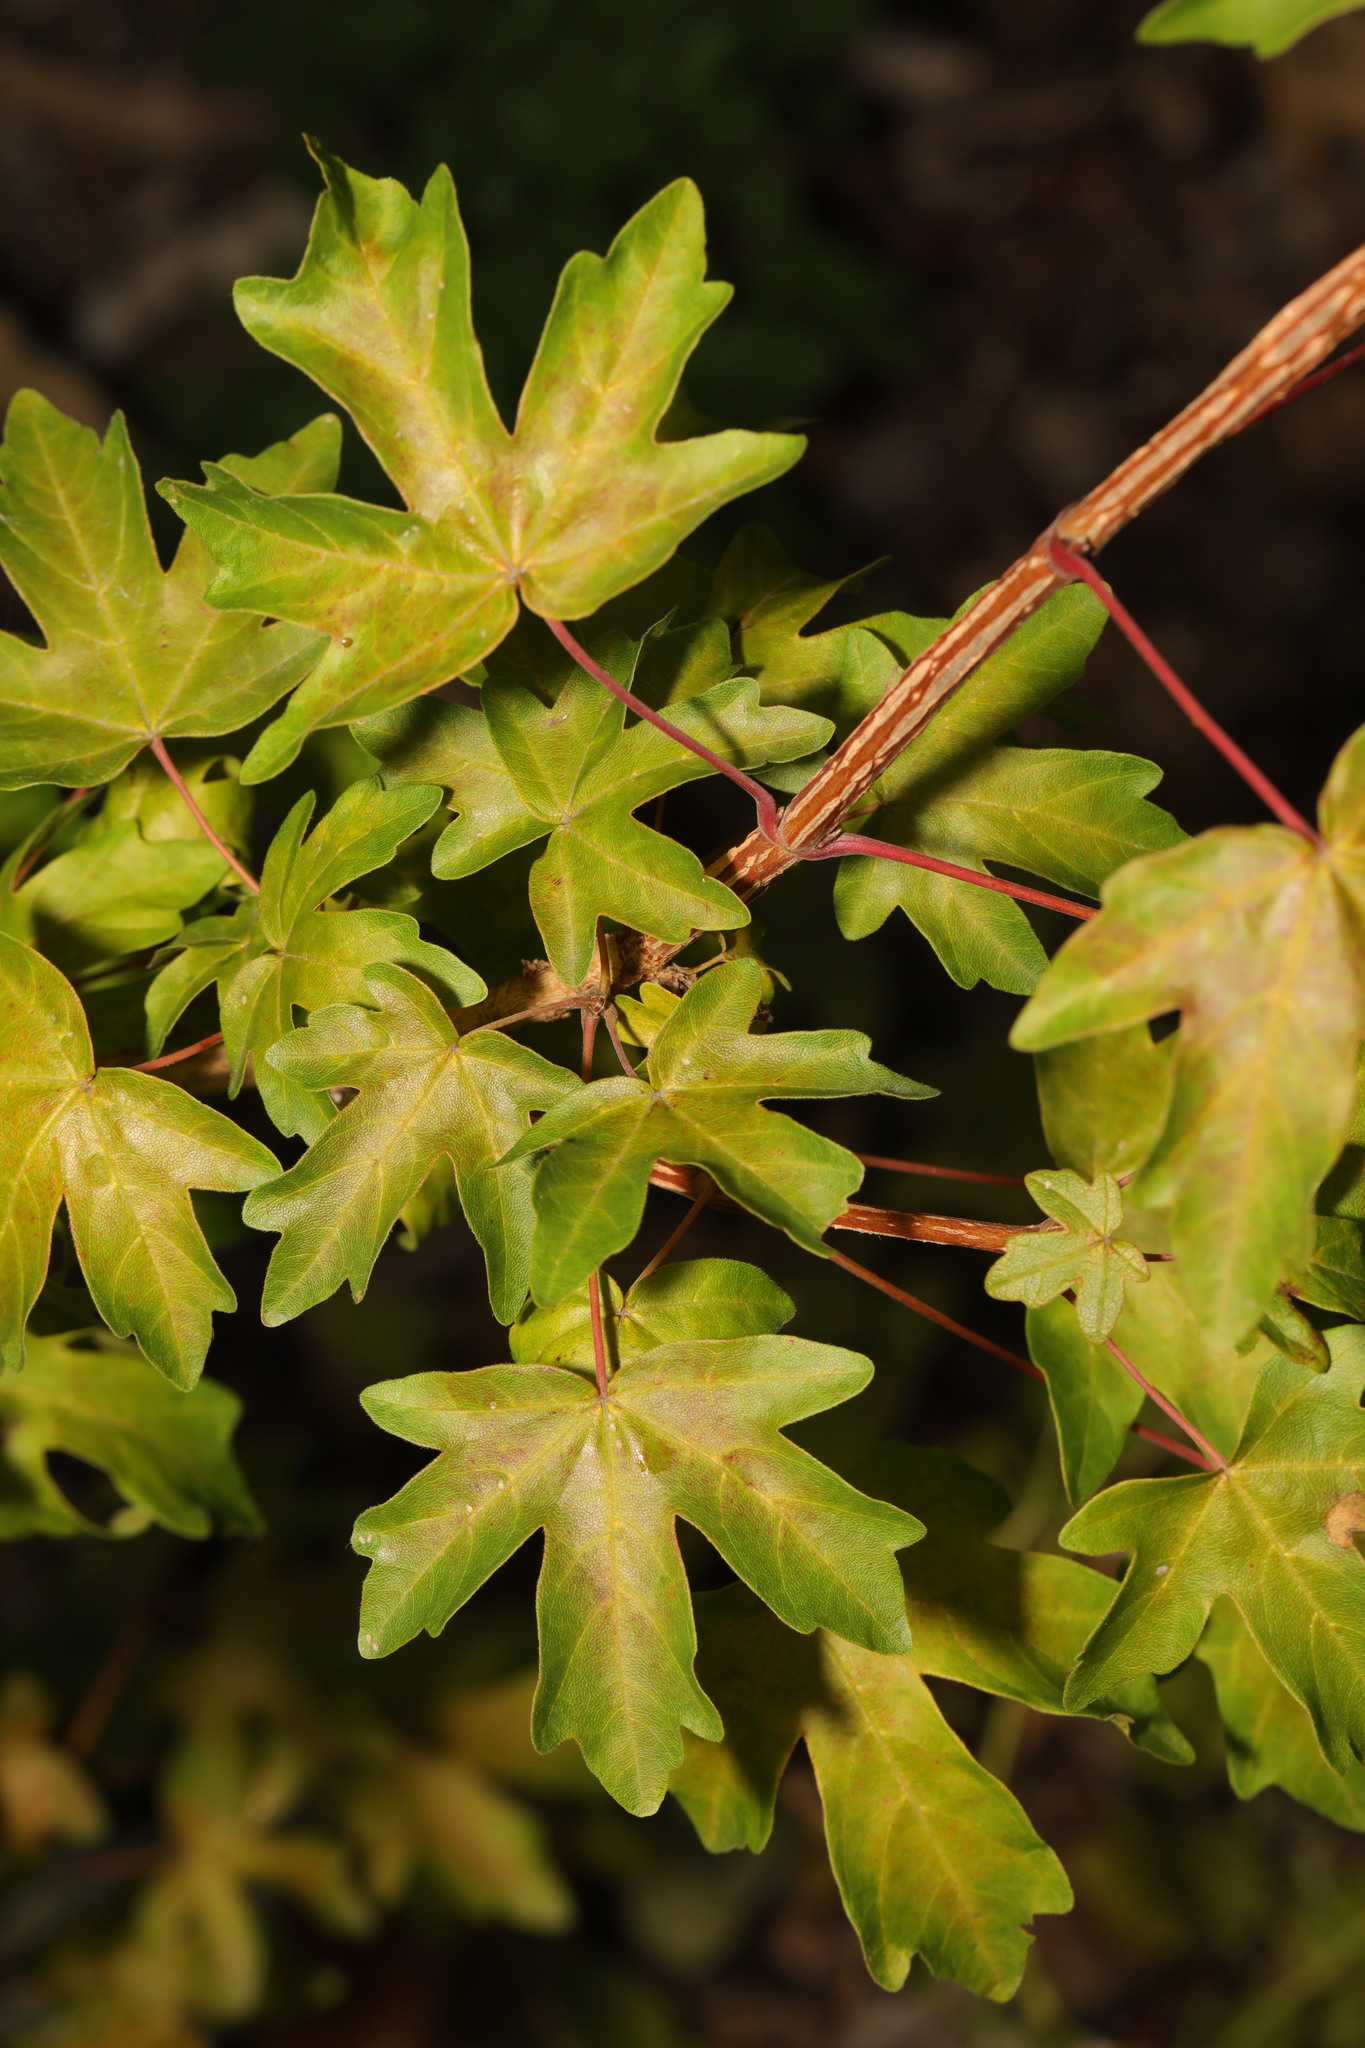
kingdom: Plantae
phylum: Tracheophyta
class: Magnoliopsida
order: Sapindales
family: Sapindaceae
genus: Acer
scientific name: Acer campestre
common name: Field maple
